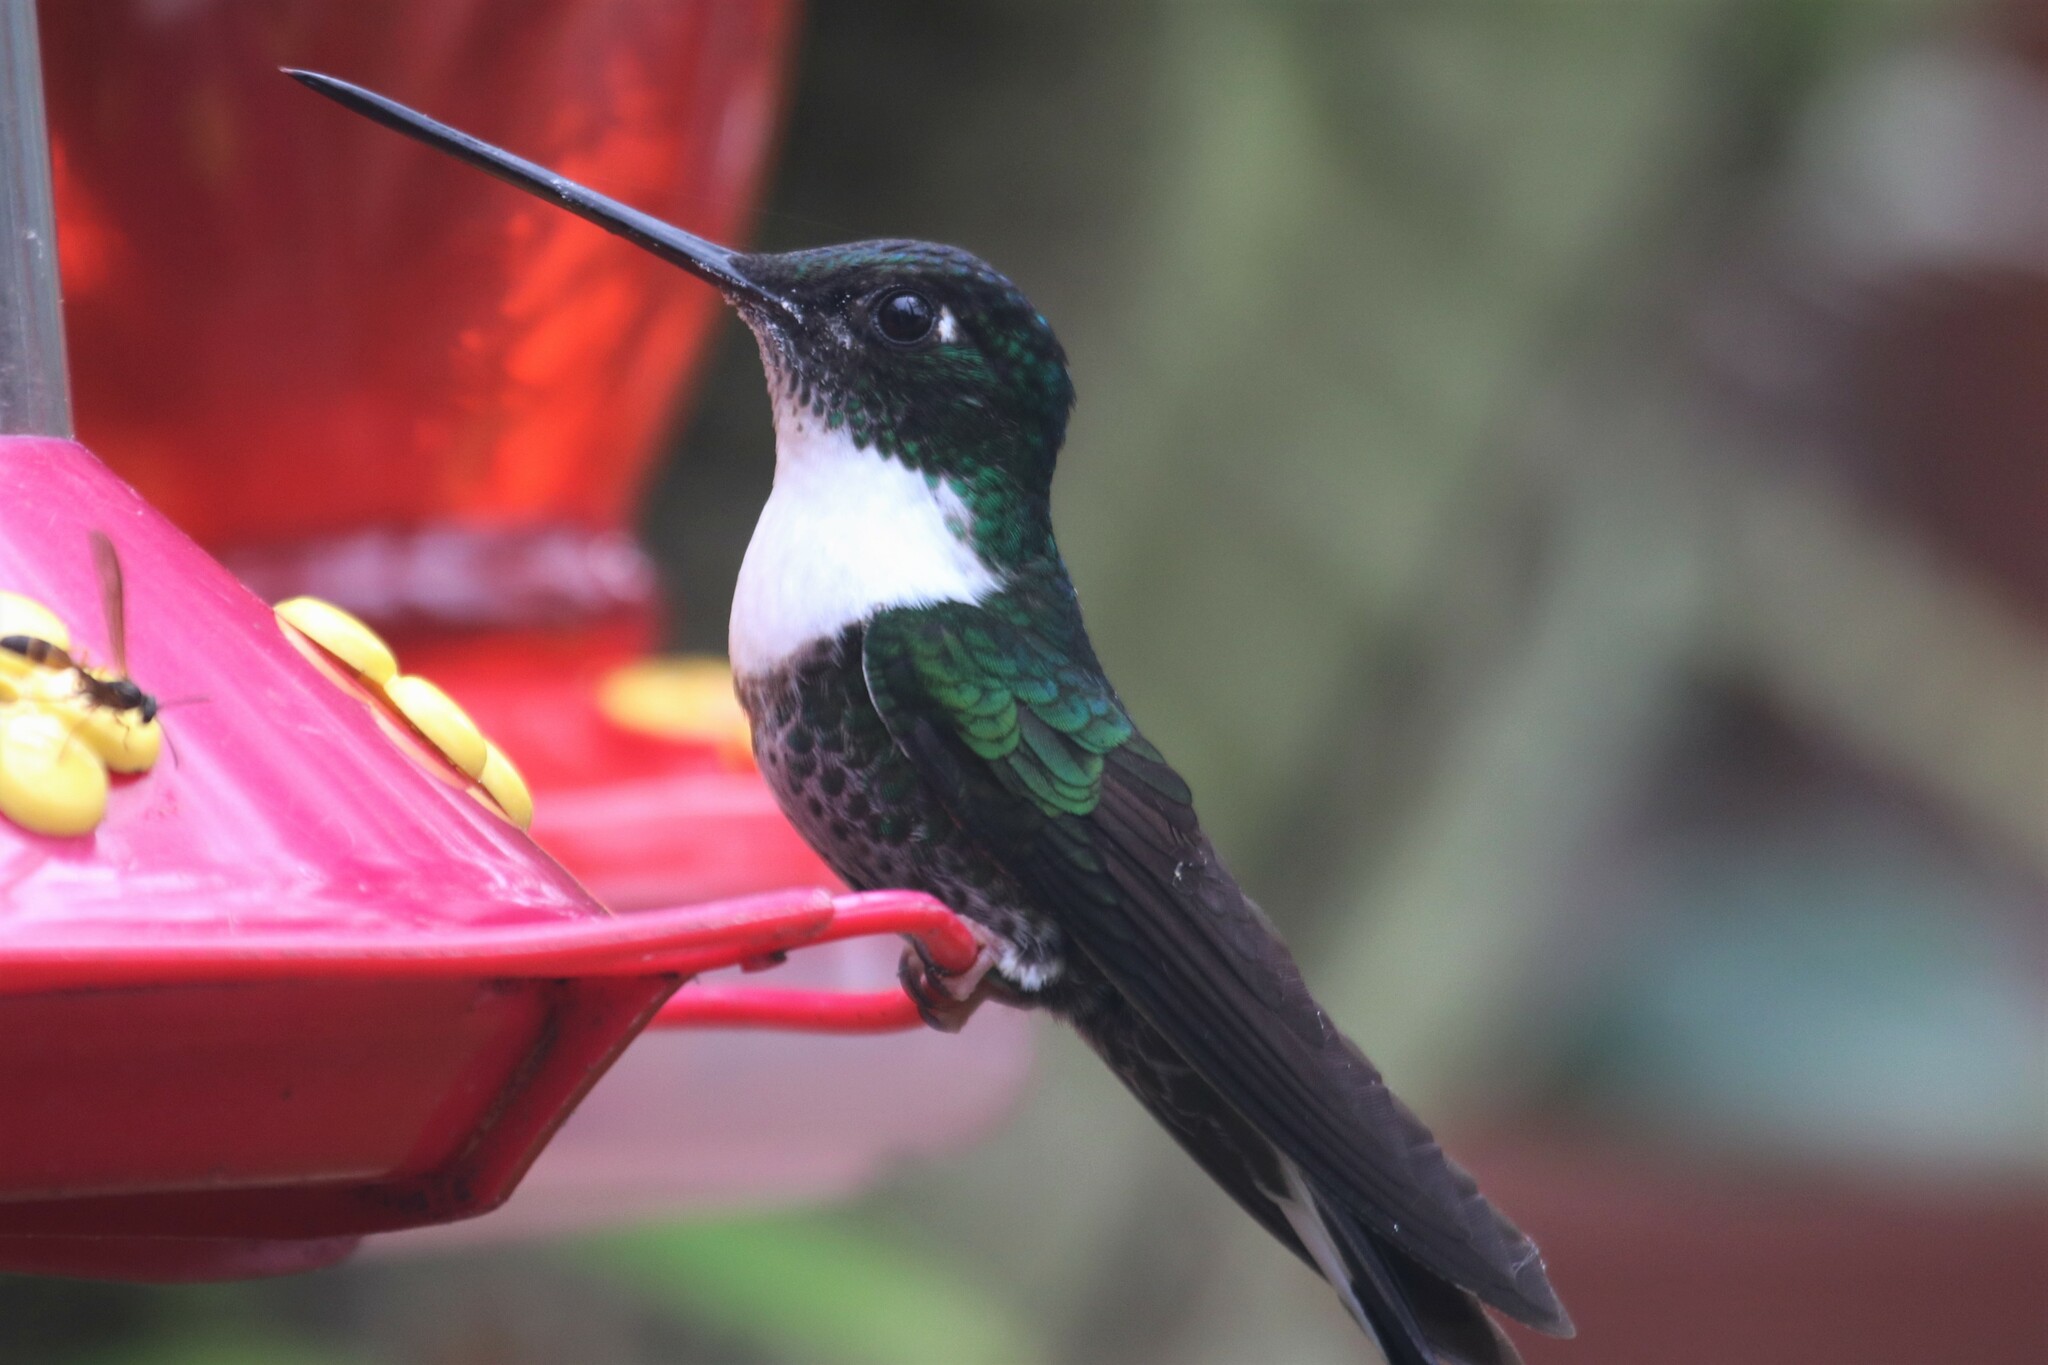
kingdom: Animalia
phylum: Chordata
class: Aves
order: Apodiformes
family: Trochilidae
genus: Coeligena
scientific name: Coeligena torquata
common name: Collared inca
